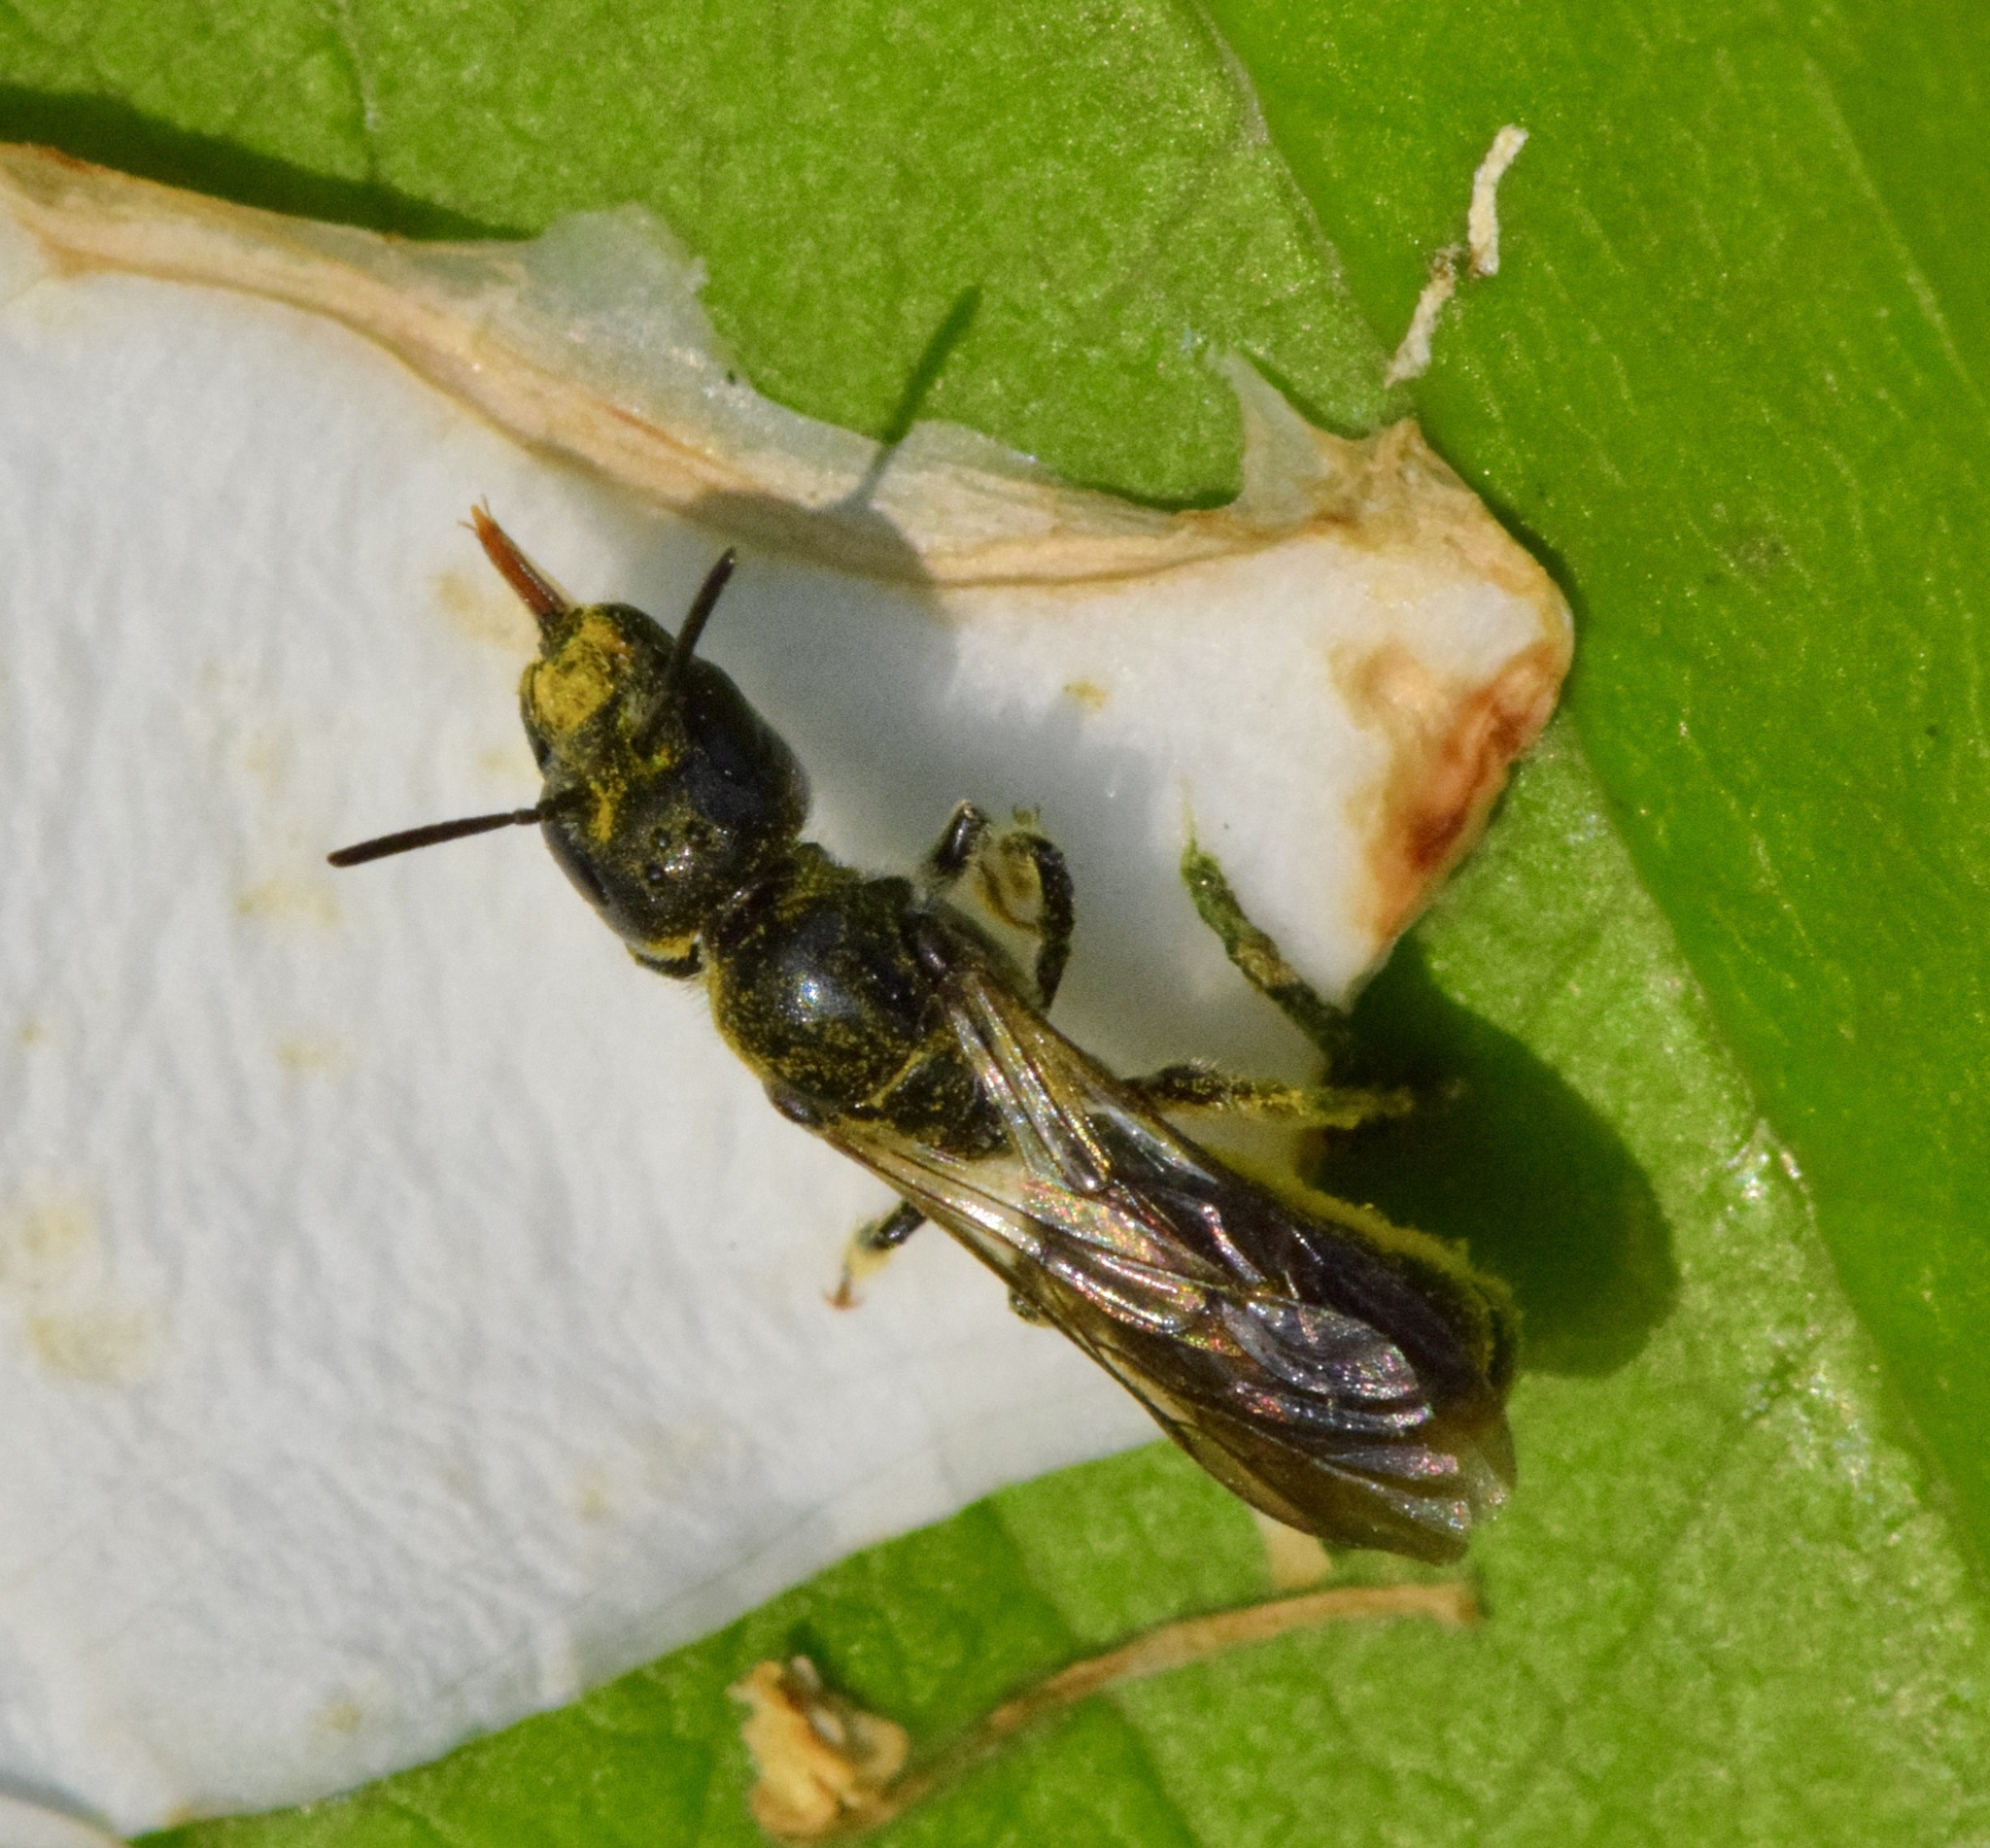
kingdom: Animalia
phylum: Arthropoda
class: Insecta
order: Hymenoptera
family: Megachilidae
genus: Chelostoma
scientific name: Chelostoma philadelphi
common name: Mock-orange scissor bee
